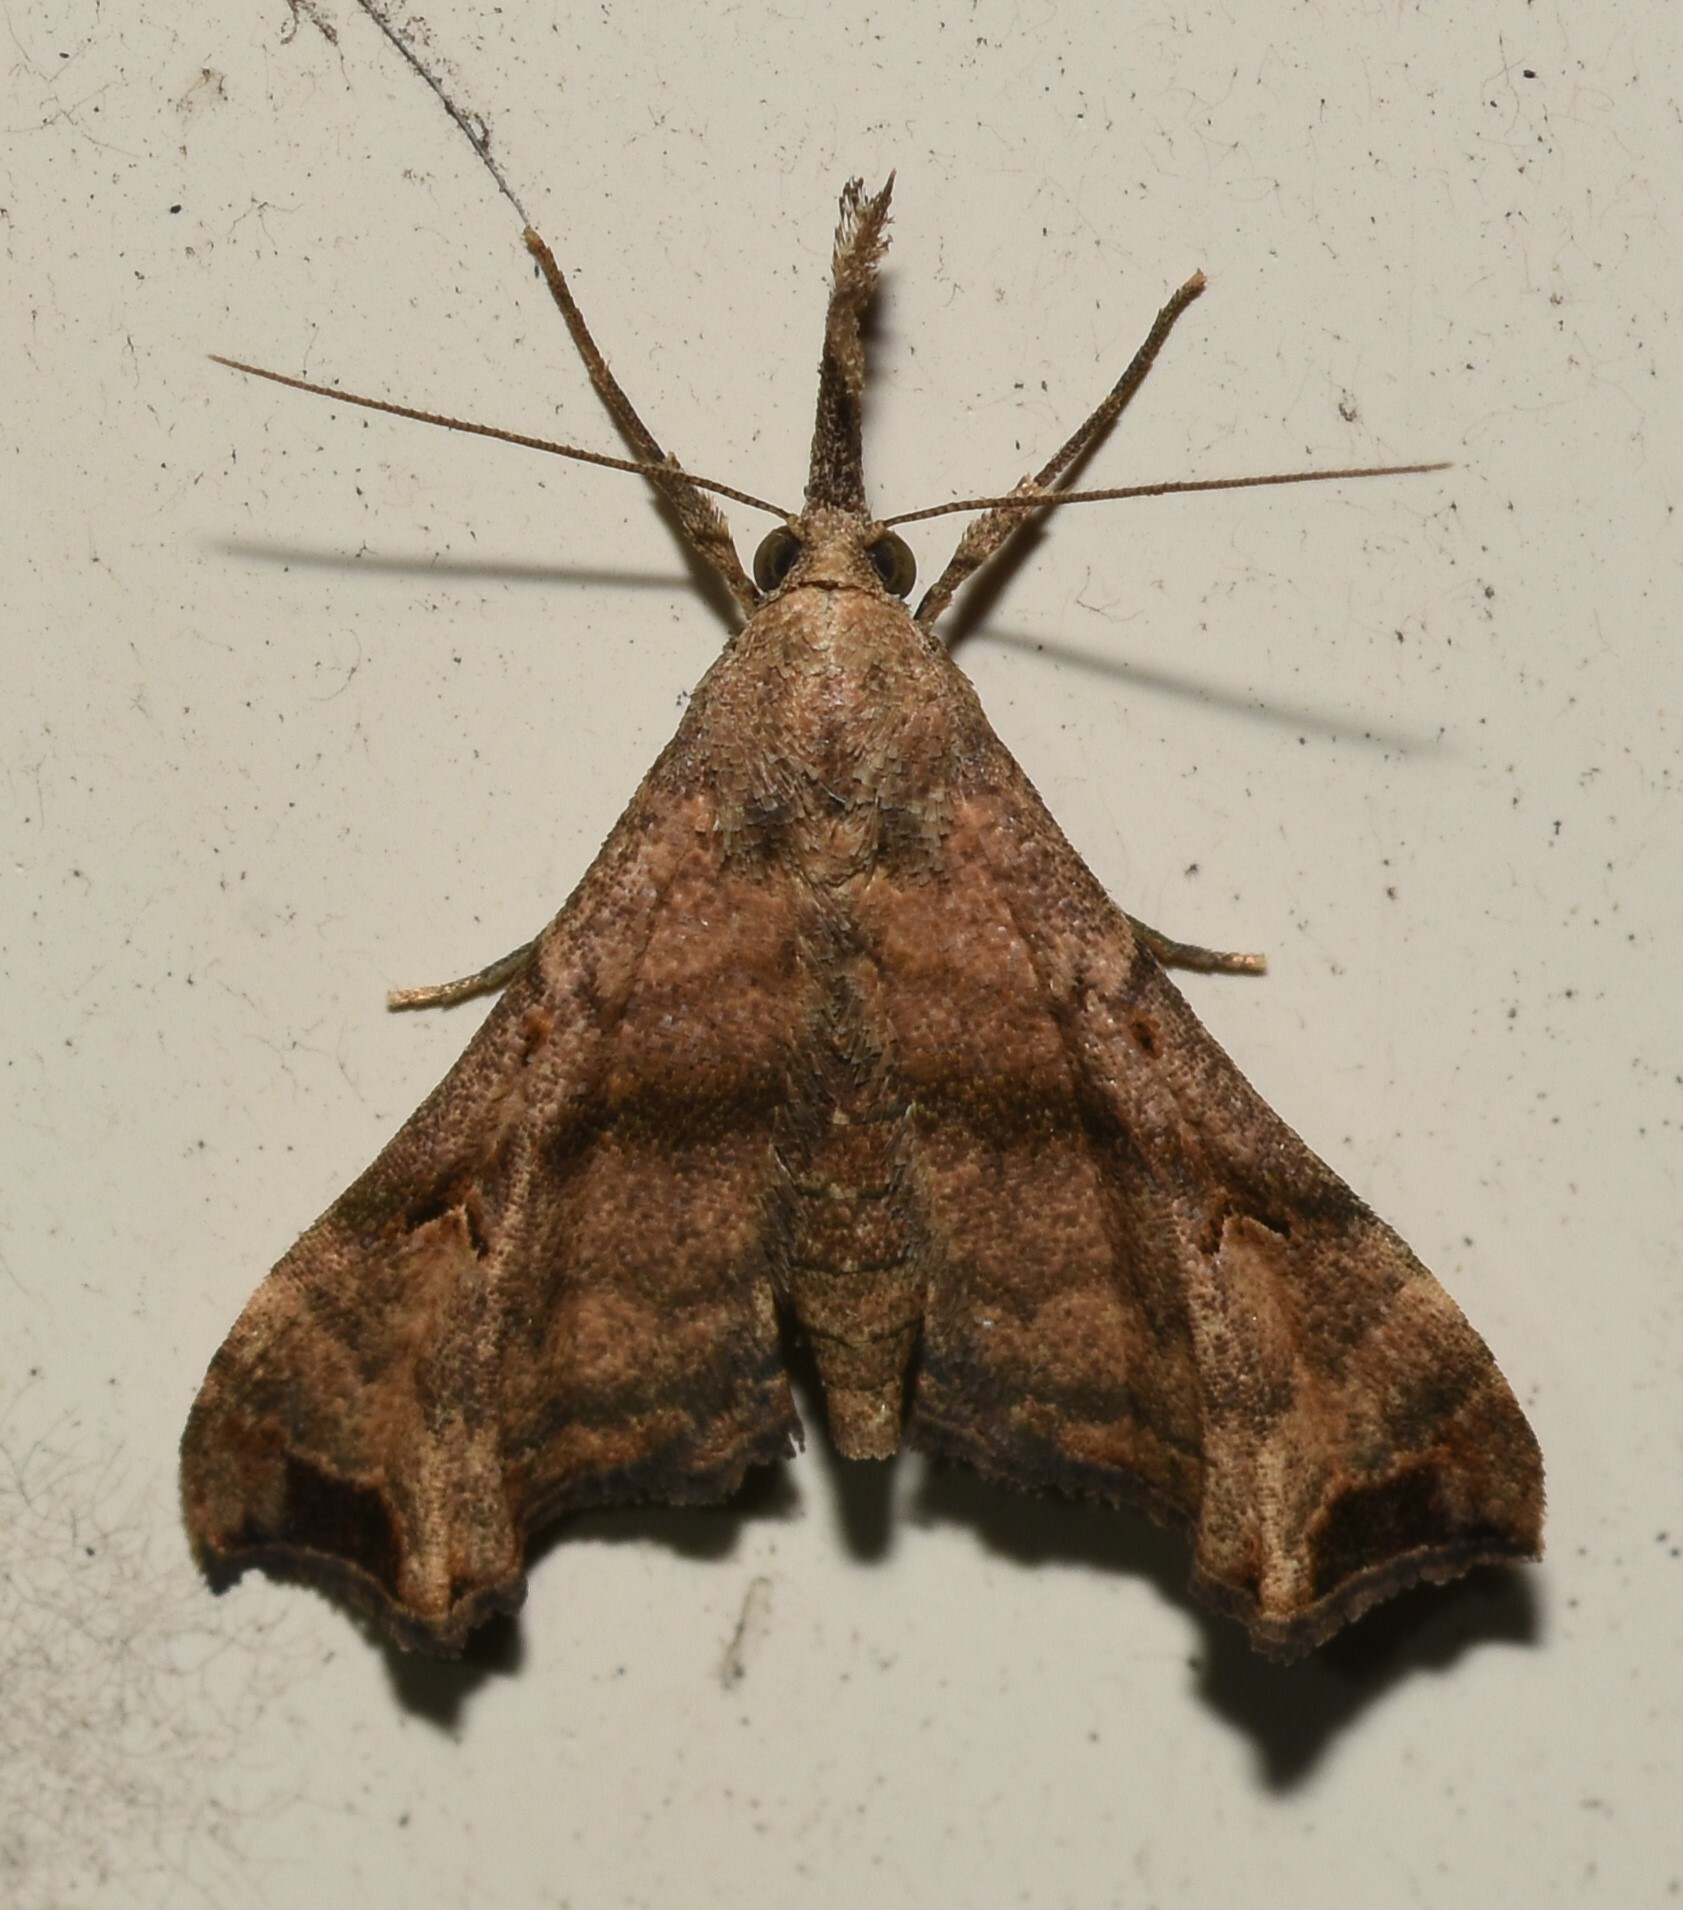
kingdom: Animalia
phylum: Arthropoda
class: Insecta
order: Lepidoptera
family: Erebidae
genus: Palthis
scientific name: Palthis asopialis
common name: Faint-spotted palthis moth
